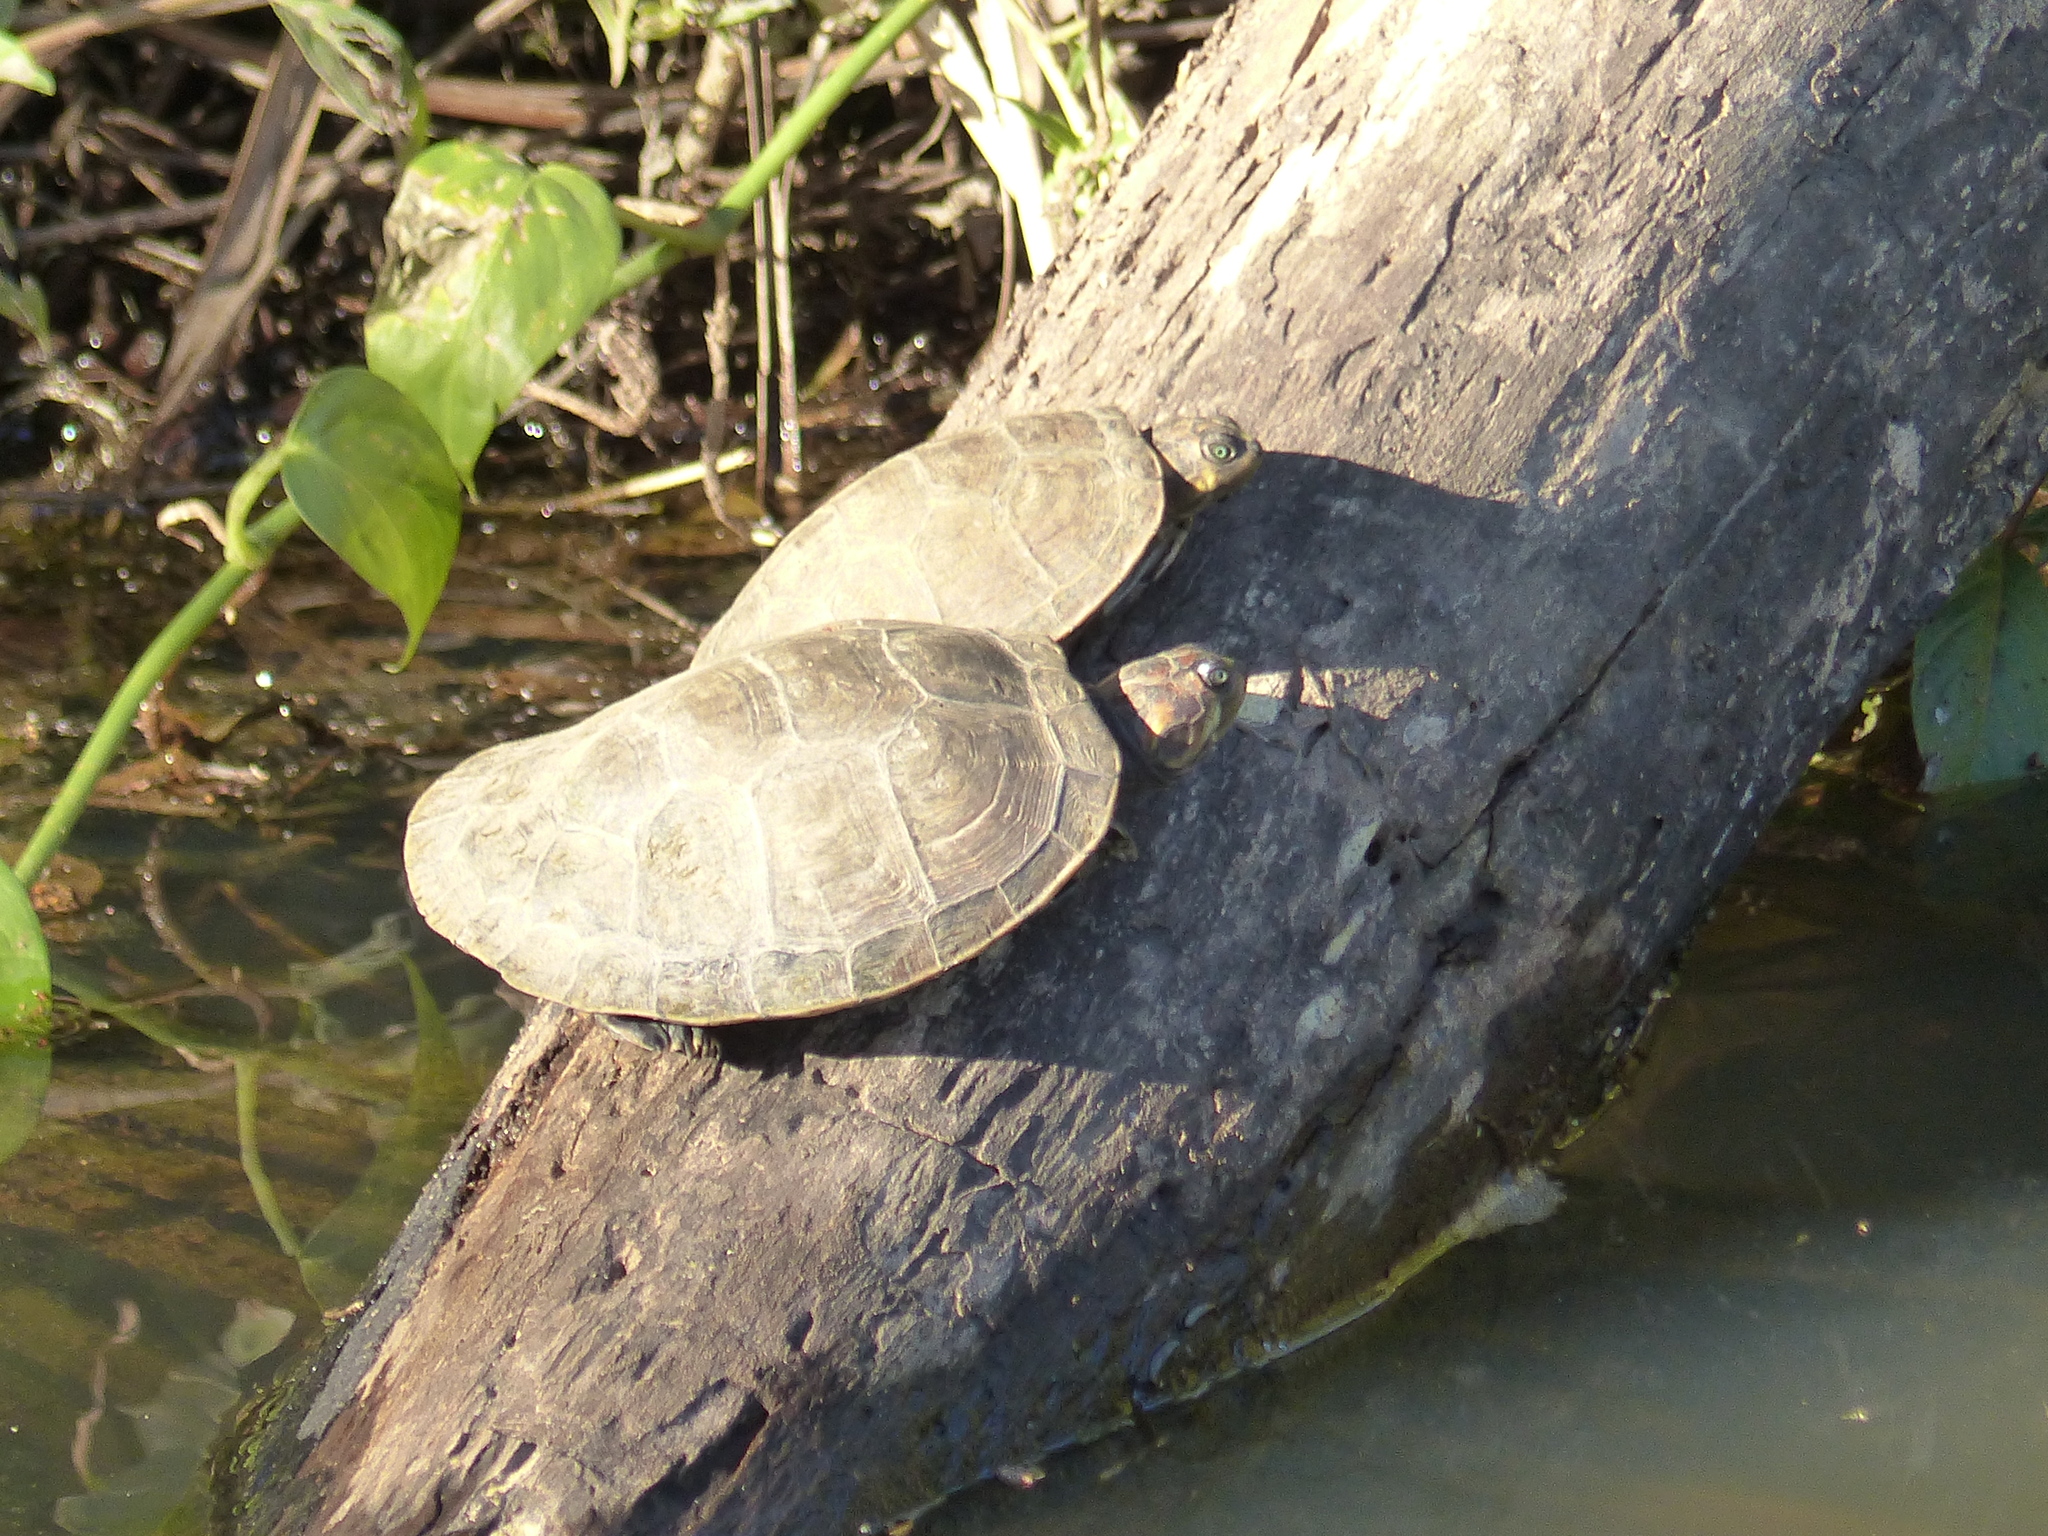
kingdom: Animalia
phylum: Chordata
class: Testudines
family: Podocnemididae
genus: Podocnemis
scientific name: Podocnemis vogli
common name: Savanna side-necked turtle
